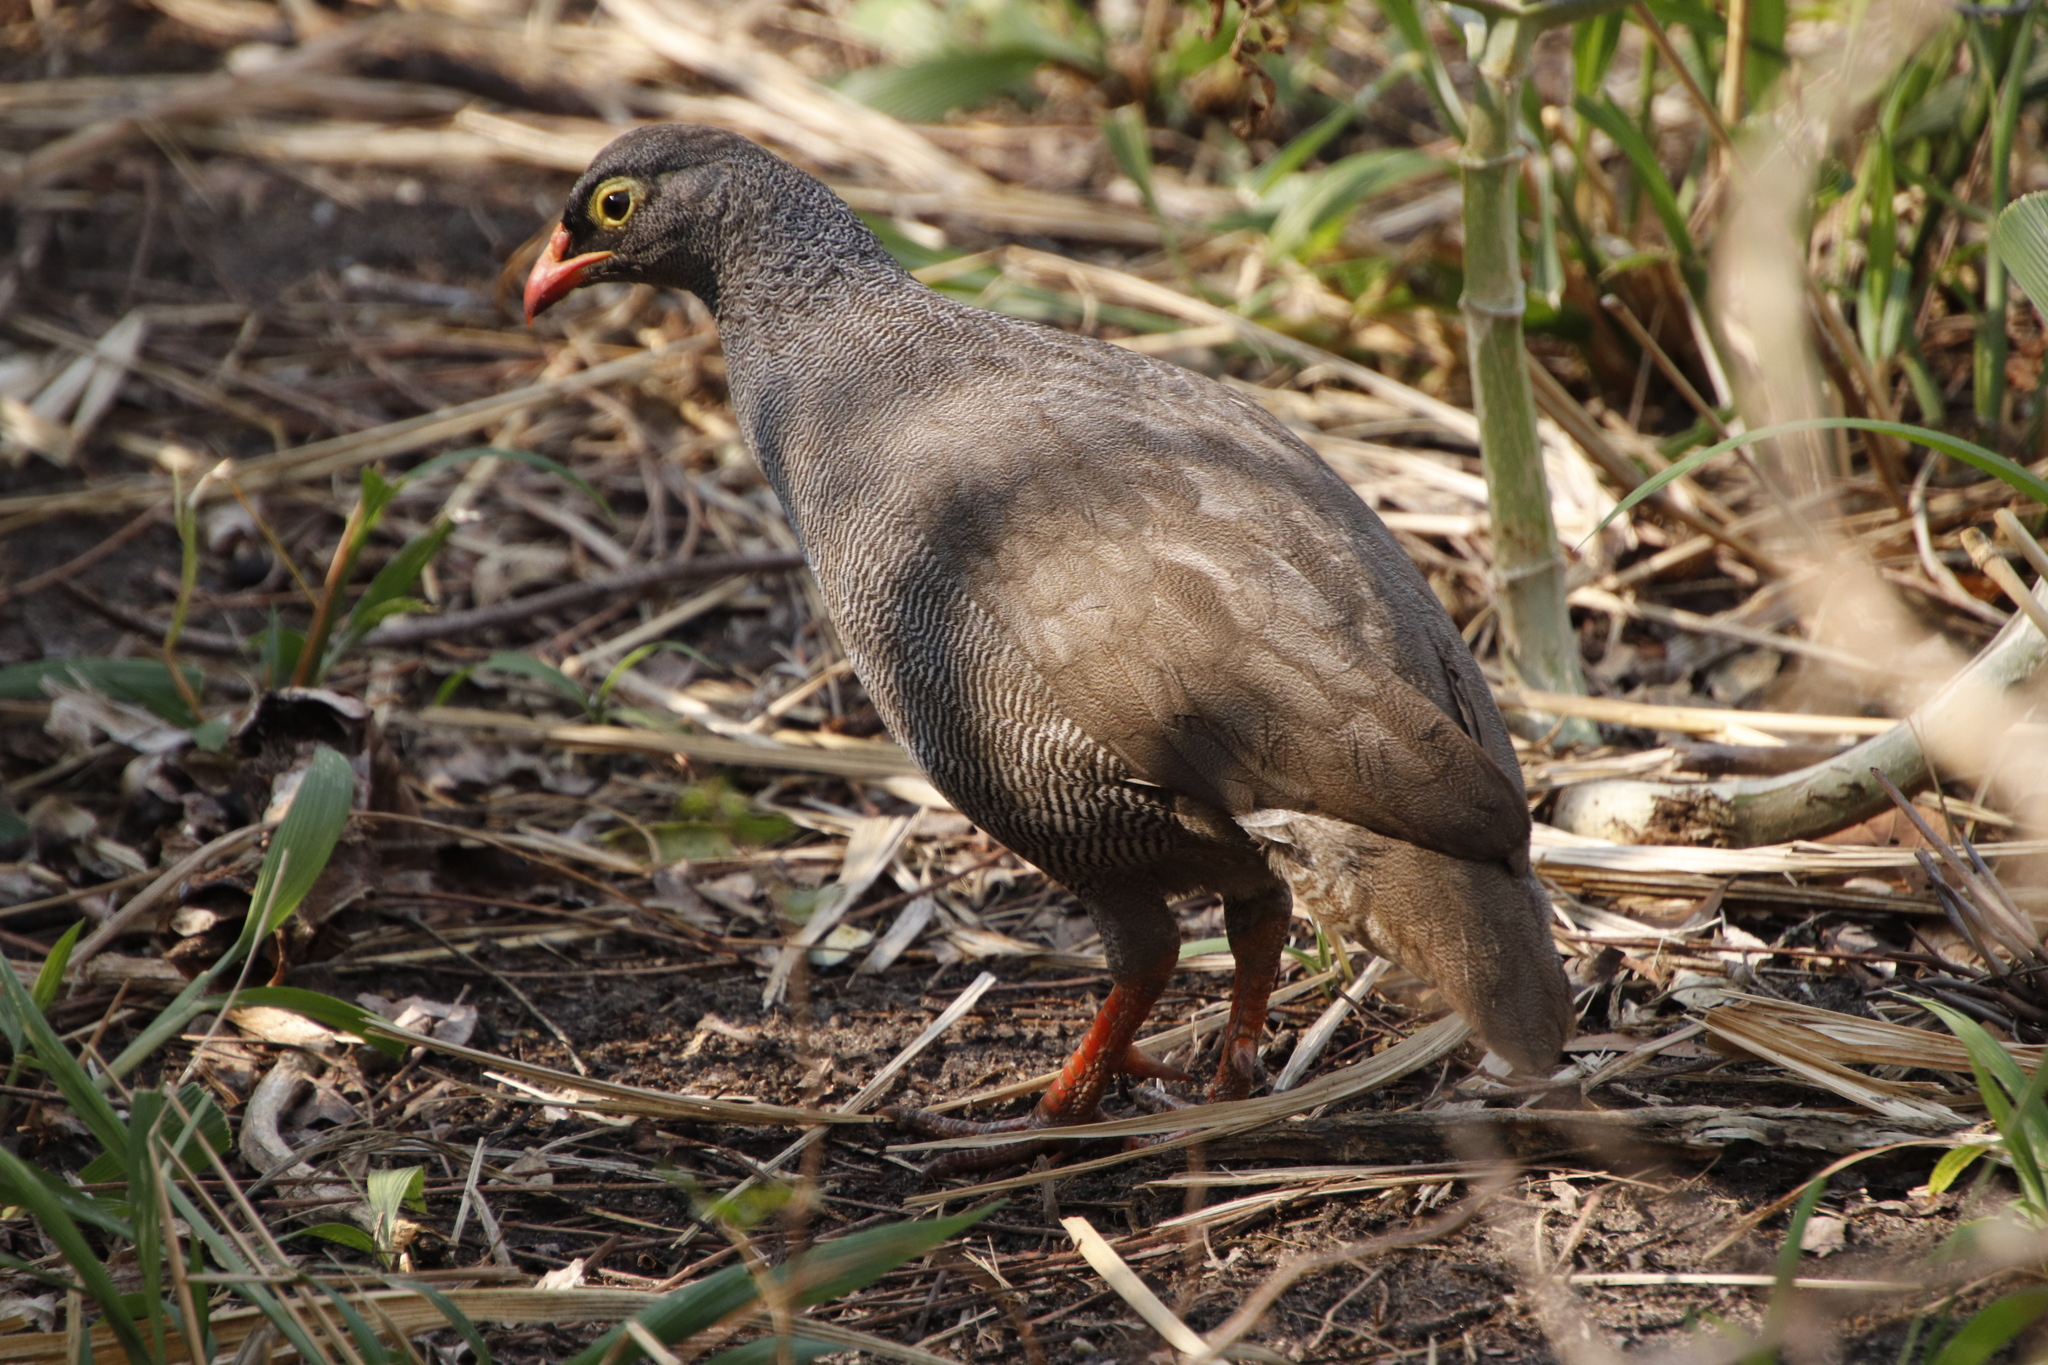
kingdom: Animalia
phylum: Chordata
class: Aves
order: Galliformes
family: Phasianidae
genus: Pternistis
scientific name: Pternistis adspersus
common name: Red-billed spurfowl
